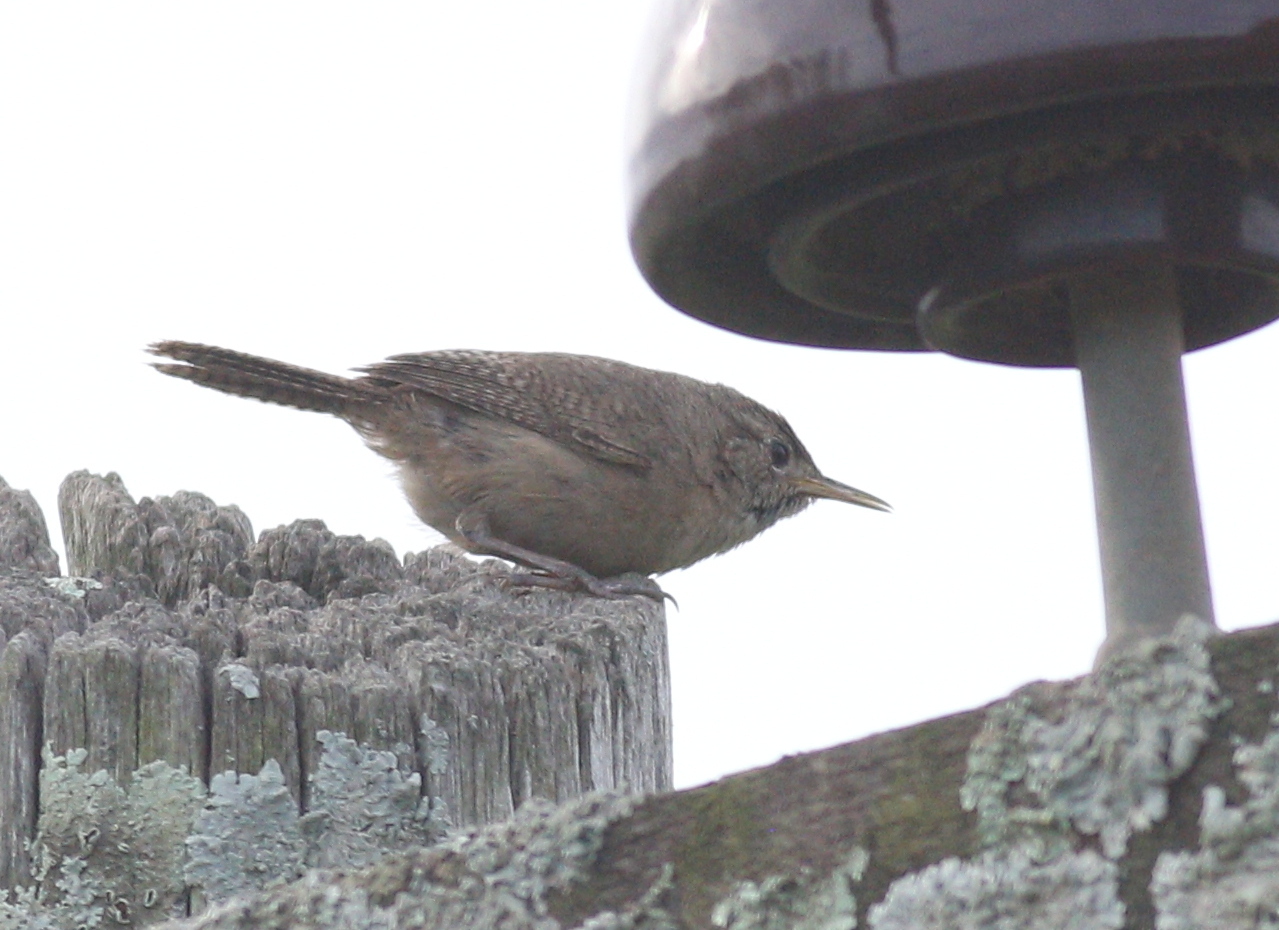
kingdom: Animalia
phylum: Chordata
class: Aves
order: Passeriformes
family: Troglodytidae
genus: Troglodytes
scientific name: Troglodytes aedon
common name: House wren
